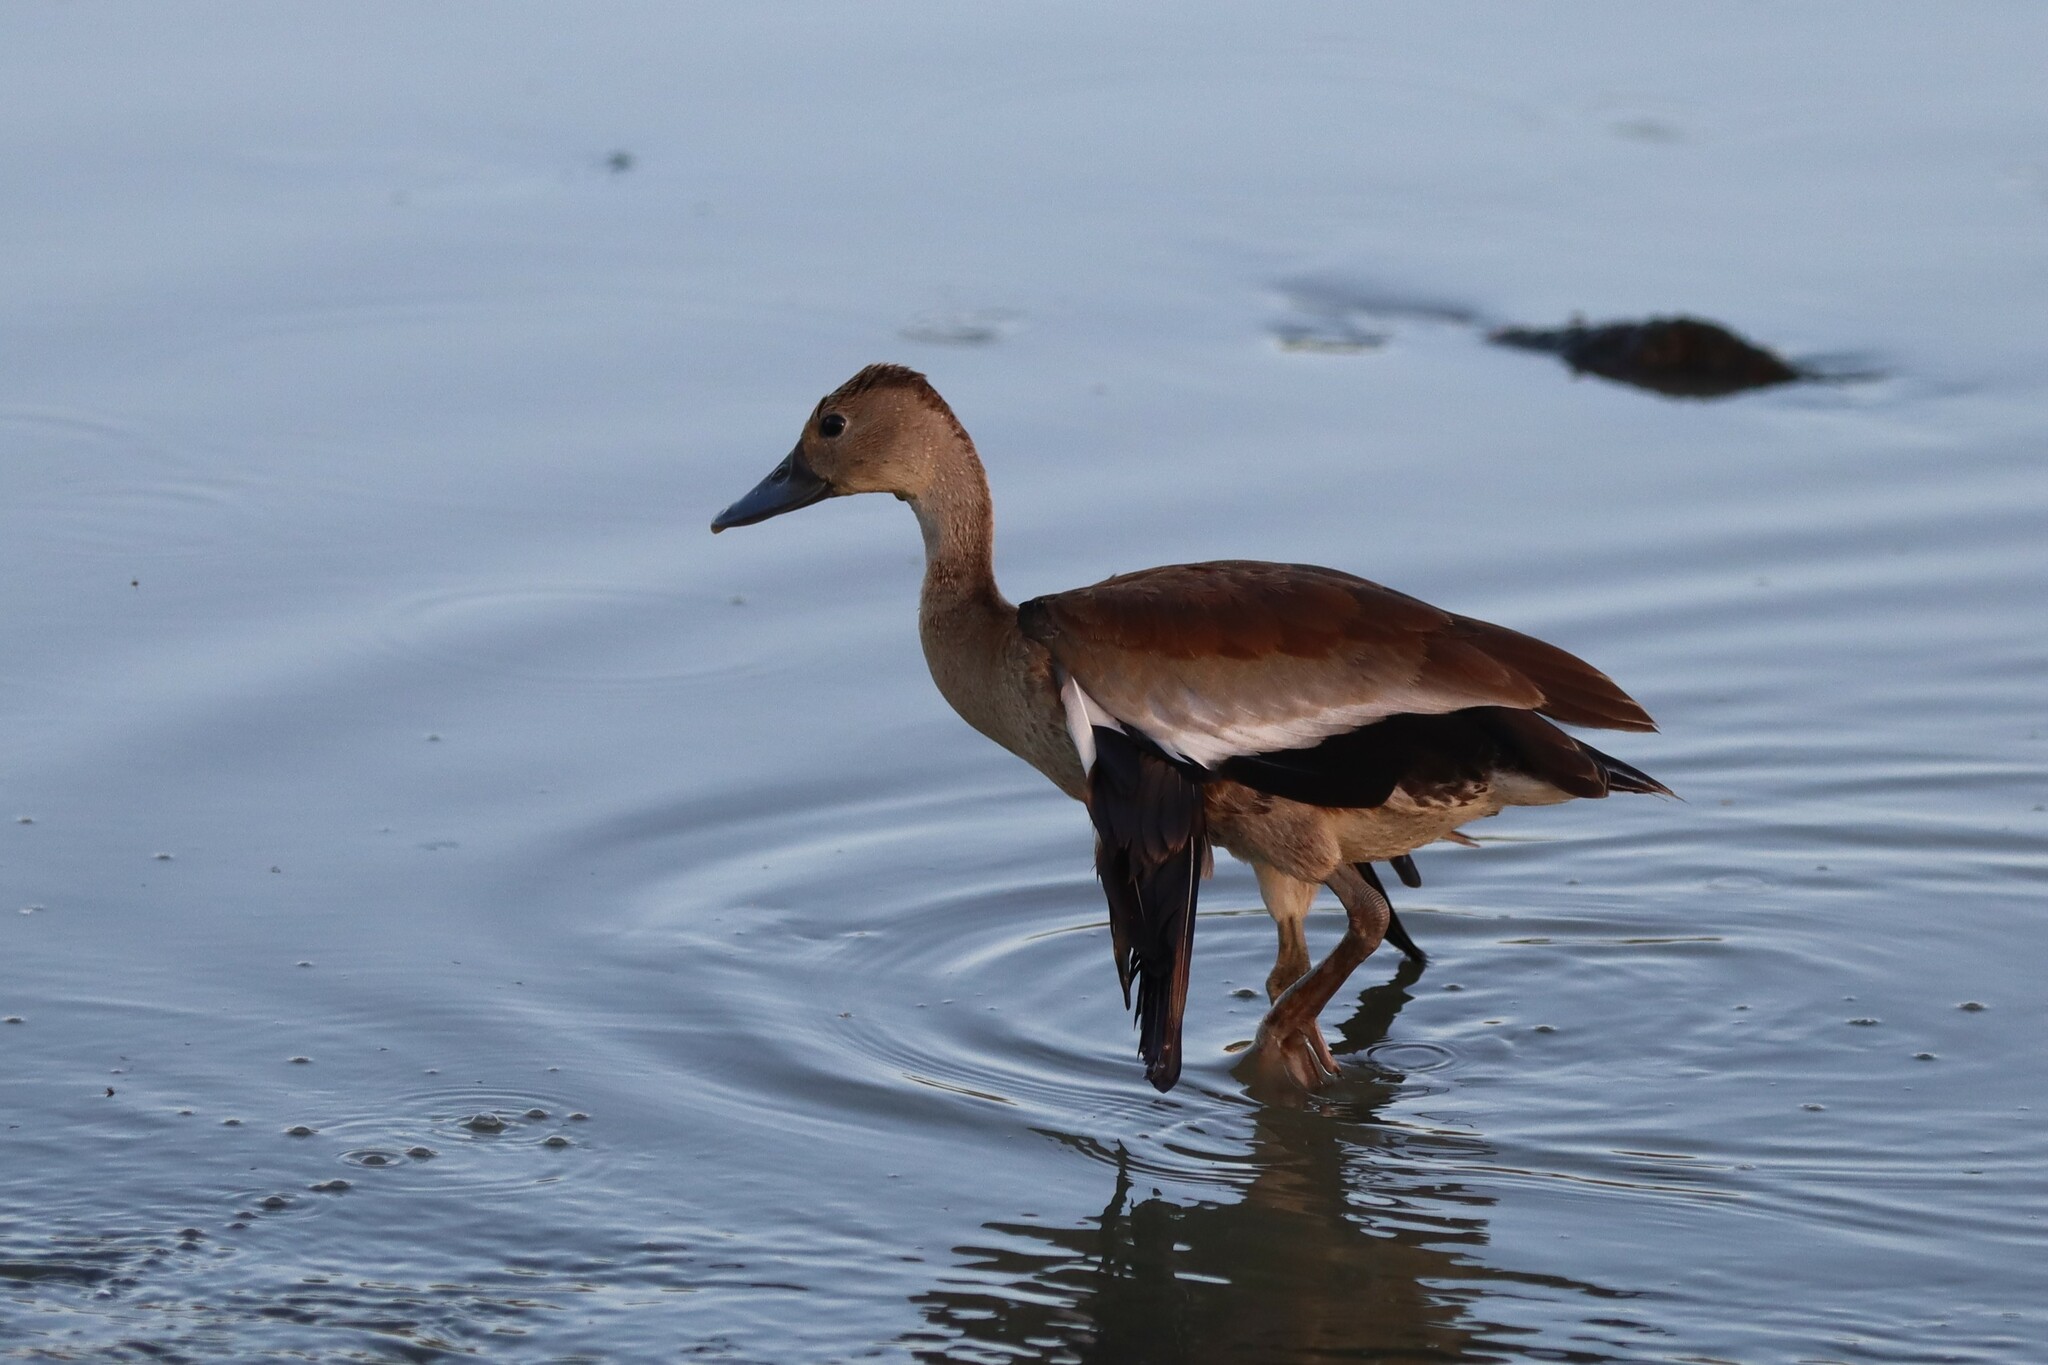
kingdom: Animalia
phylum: Chordata
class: Aves
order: Anseriformes
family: Anatidae
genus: Dendrocygna
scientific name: Dendrocygna autumnalis
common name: Black-bellied whistling duck
